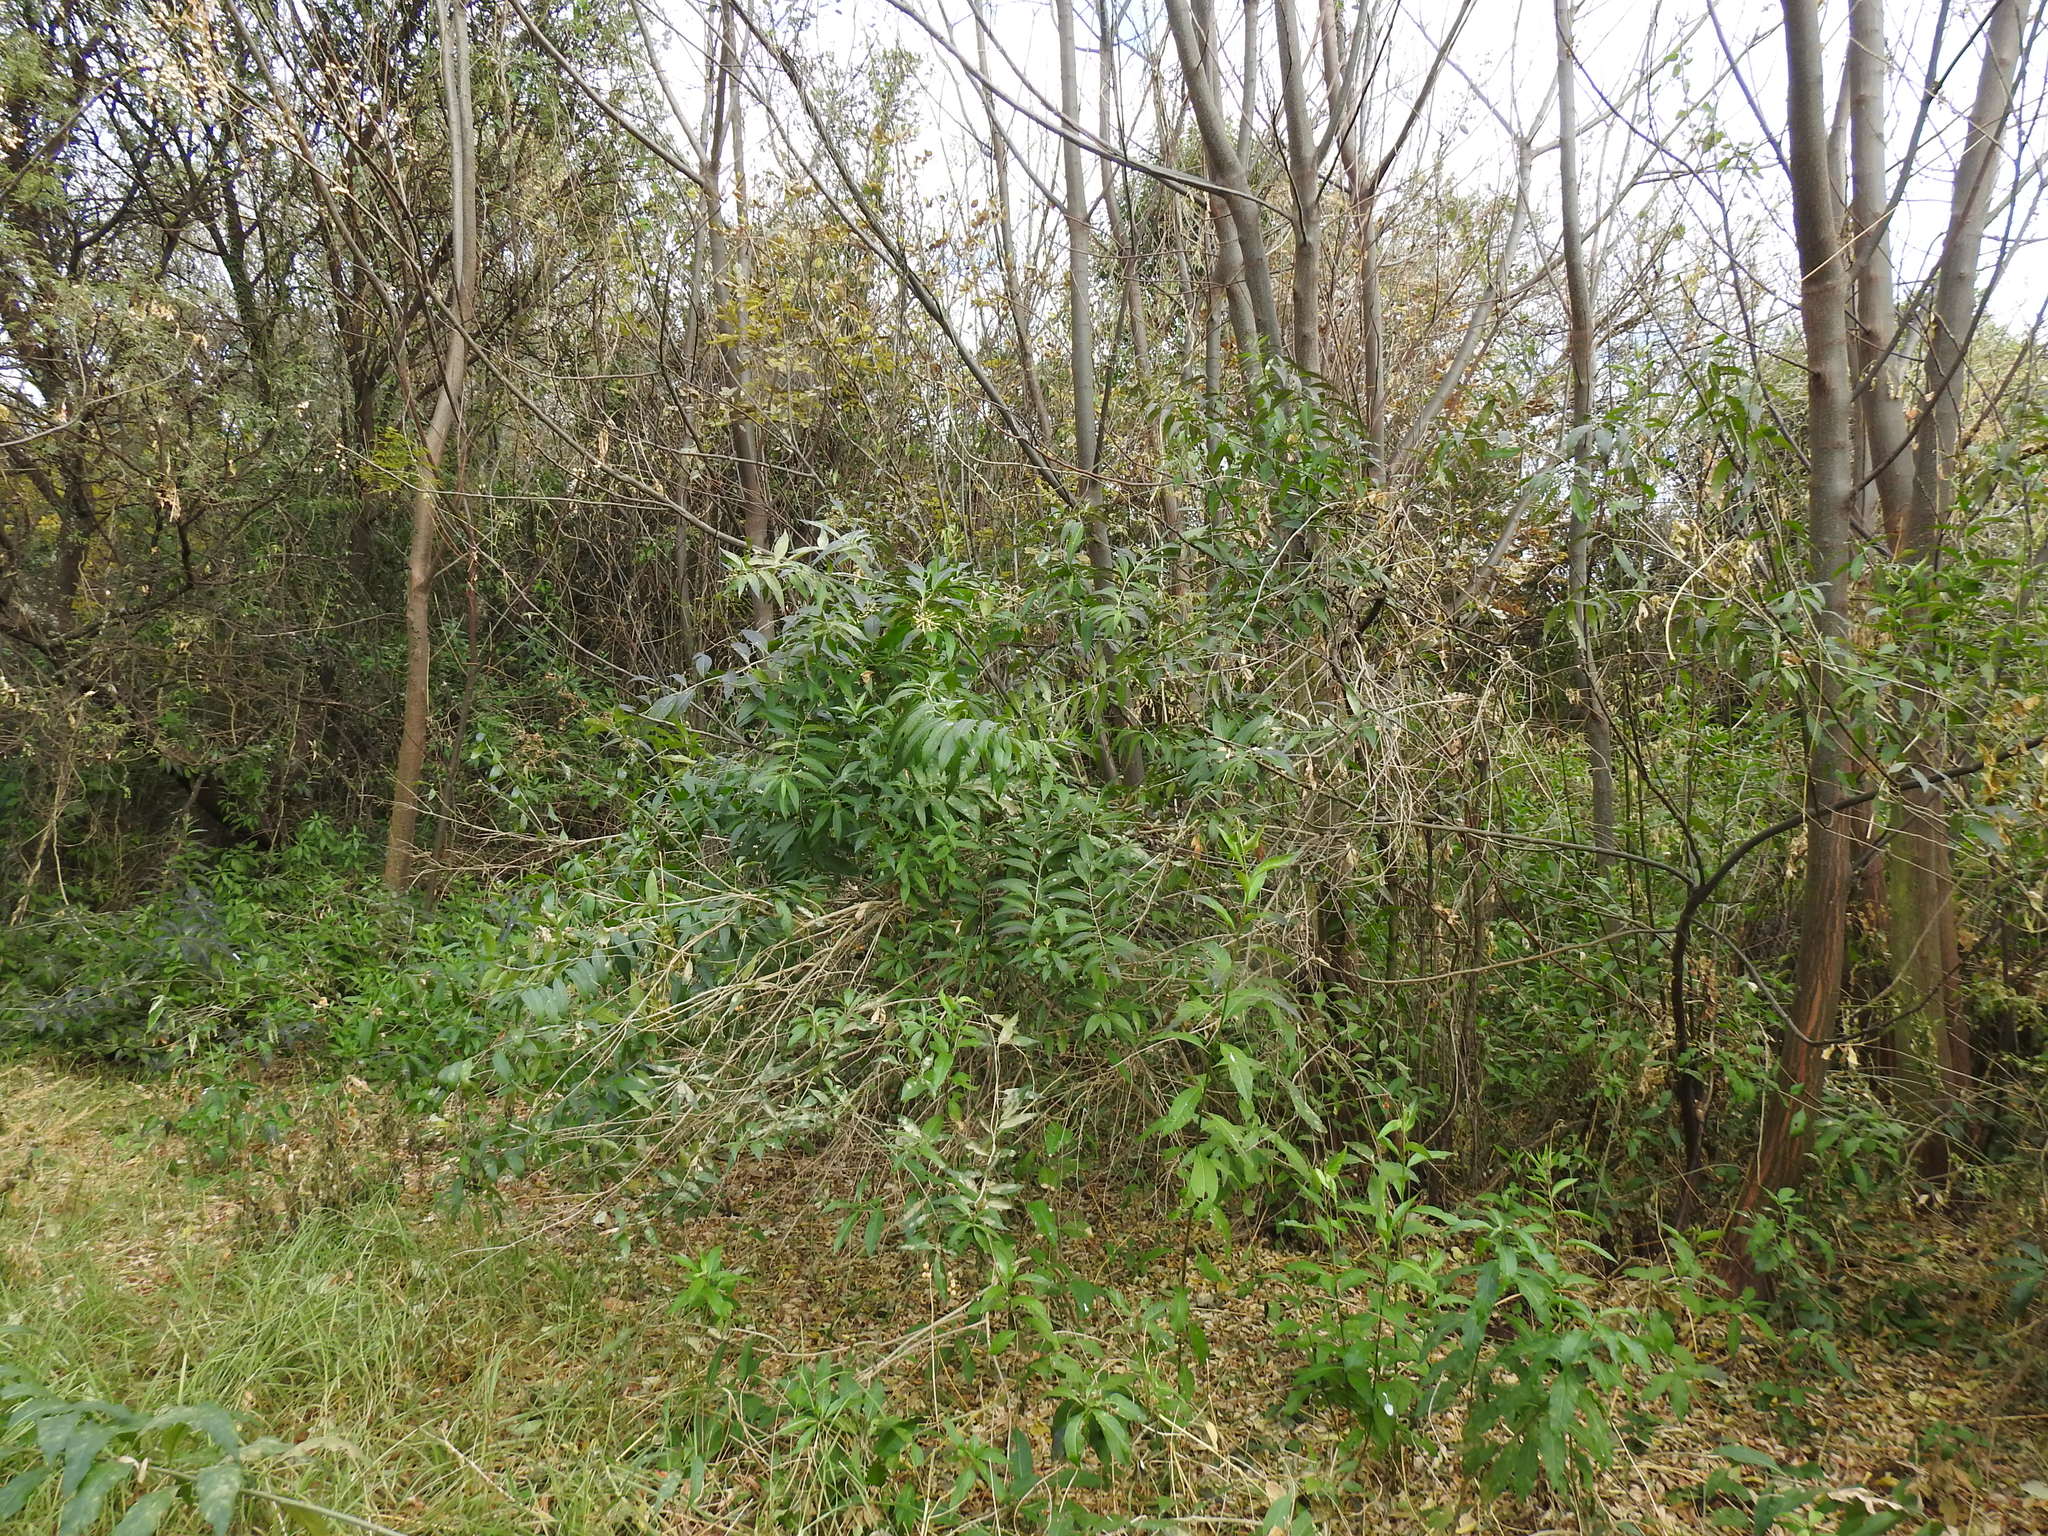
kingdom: Plantae
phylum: Tracheophyta
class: Magnoliopsida
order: Solanales
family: Solanaceae
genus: Cestrum
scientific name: Cestrum parqui
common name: Chilean cestrum
